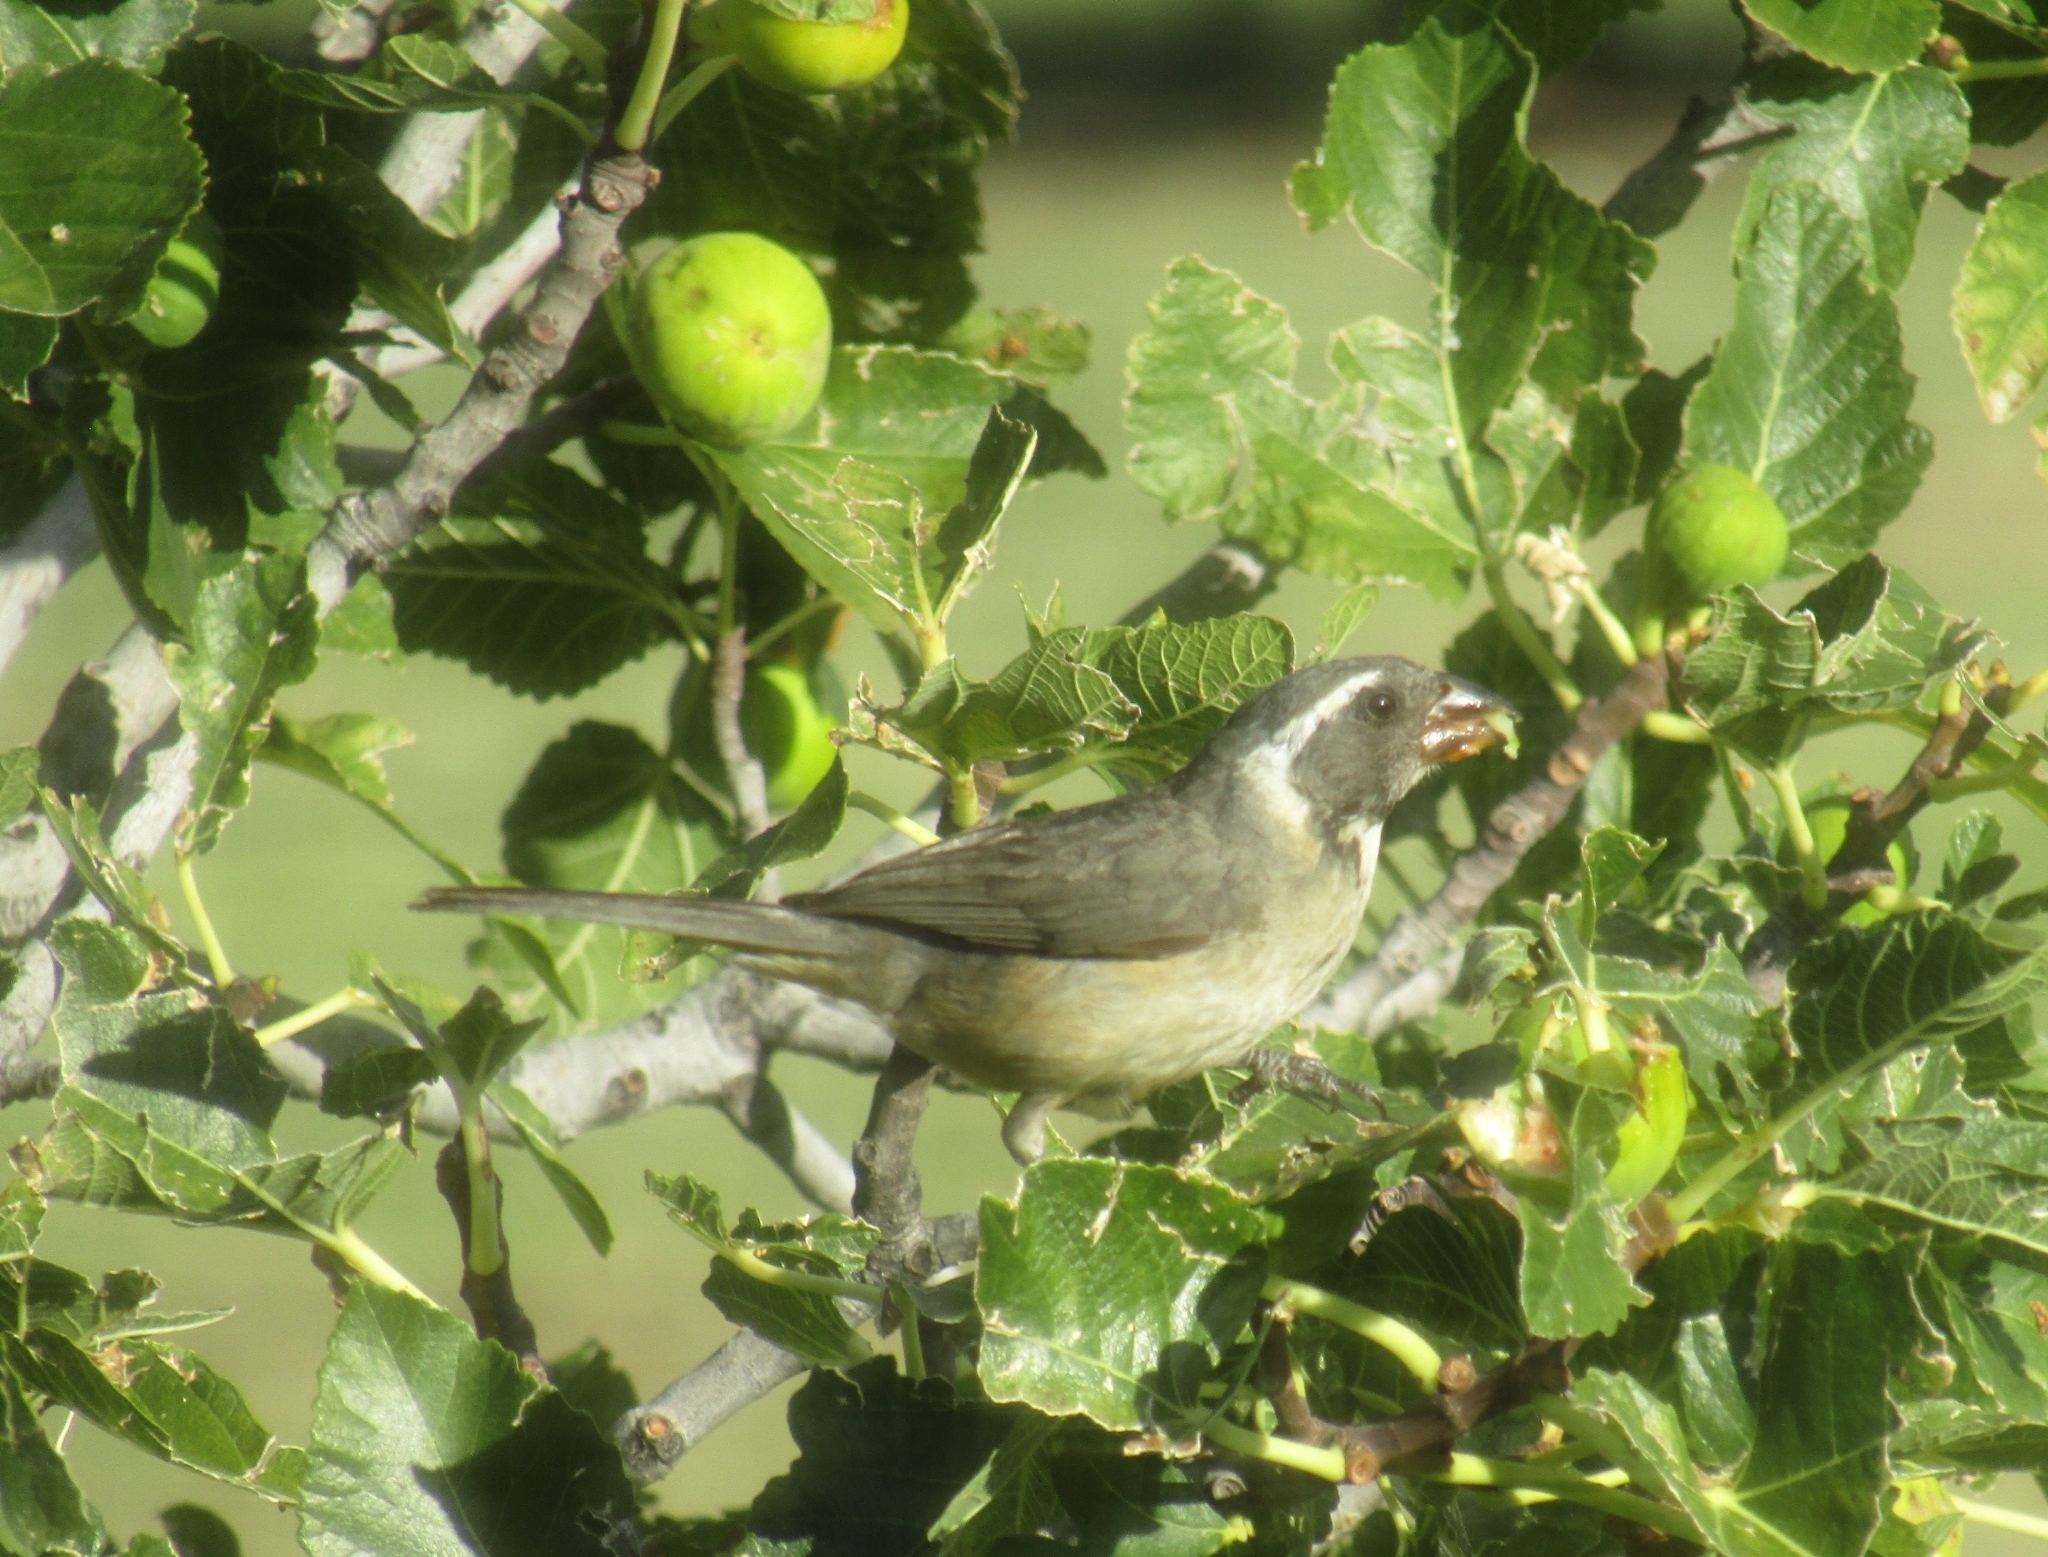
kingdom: Animalia
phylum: Chordata
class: Aves
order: Passeriformes
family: Thraupidae
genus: Saltator
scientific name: Saltator aurantiirostris
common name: Golden-billed saltator
